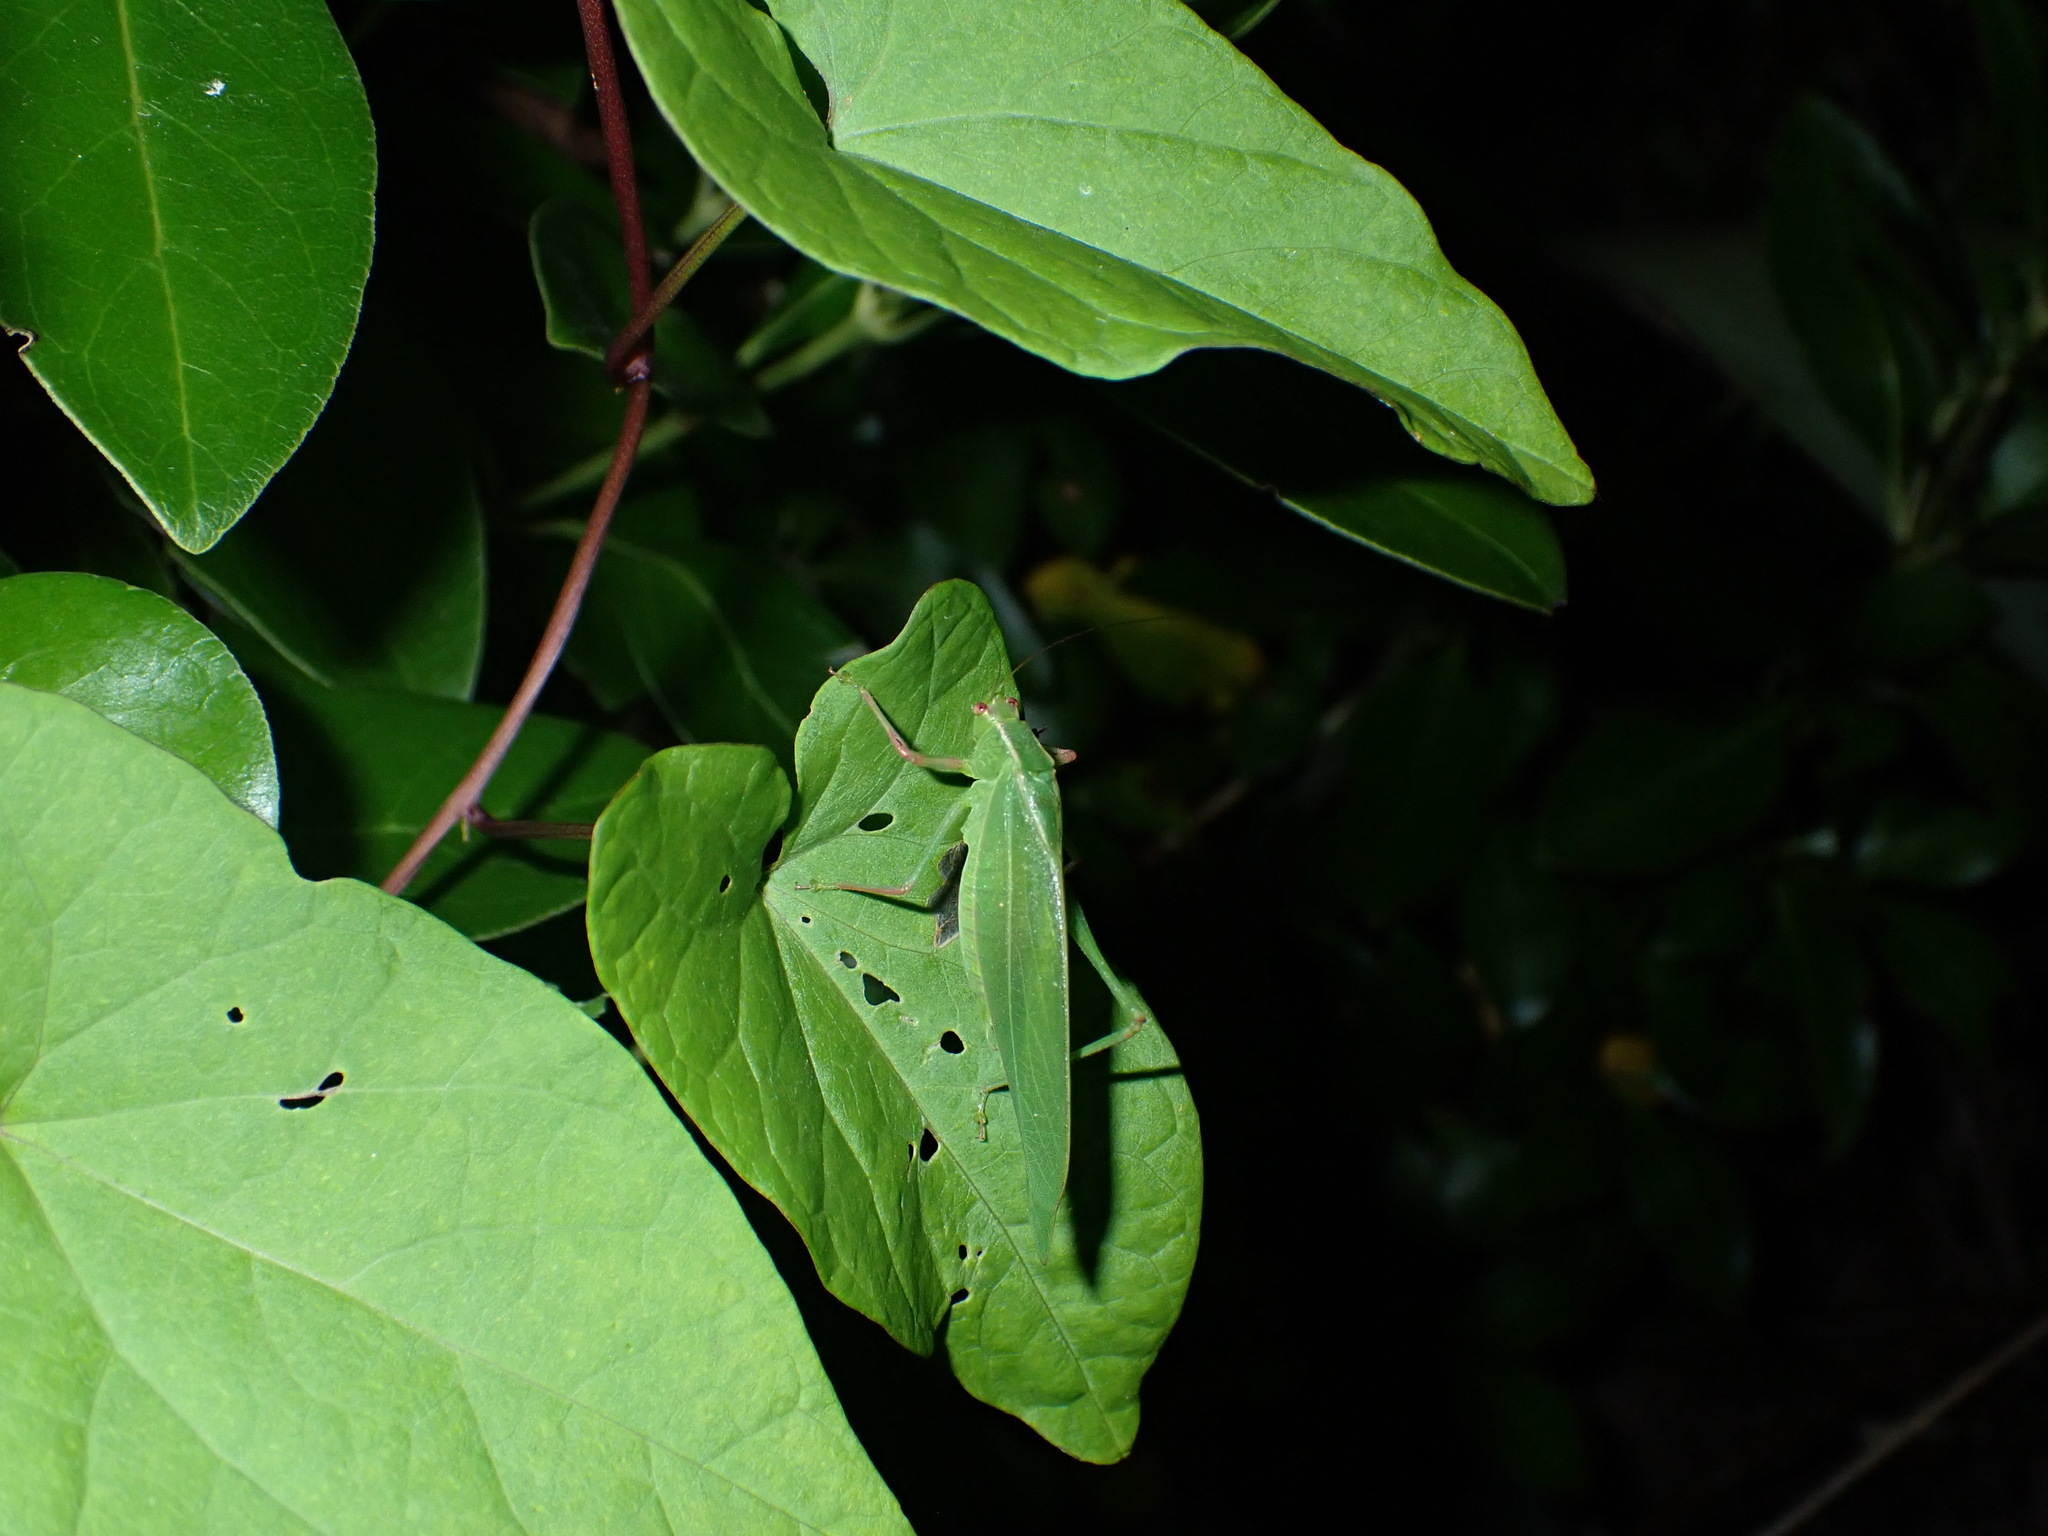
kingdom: Animalia
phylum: Arthropoda
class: Insecta
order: Orthoptera
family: Tettigoniidae
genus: Caedicia
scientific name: Caedicia simplex
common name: Common garden katydid
